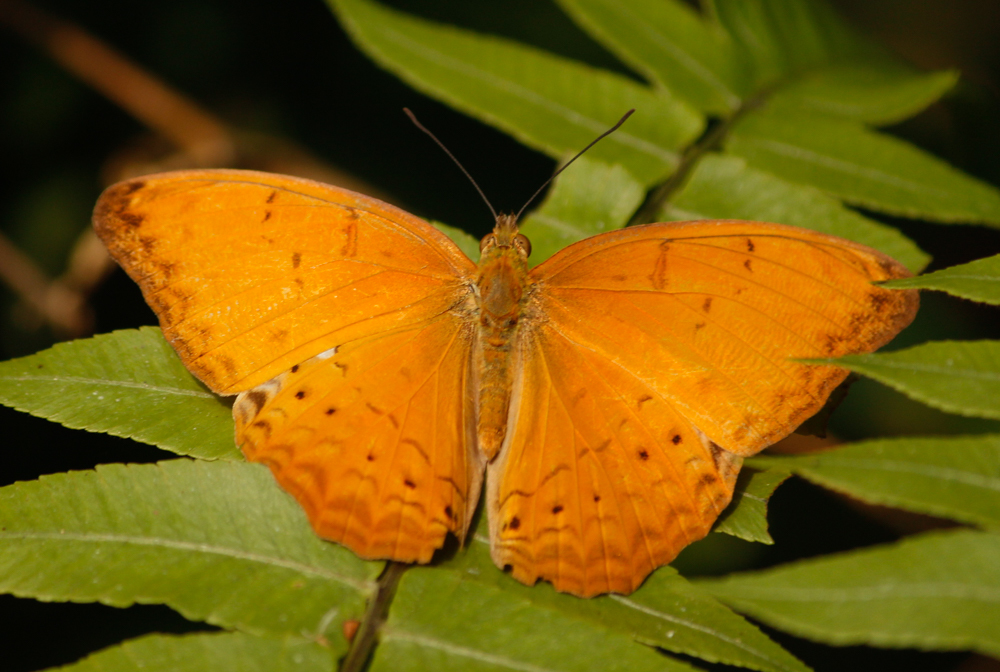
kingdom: Animalia
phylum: Arthropoda
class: Insecta
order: Lepidoptera
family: Nymphalidae
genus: Cirrochroa
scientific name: Cirrochroa aoris
